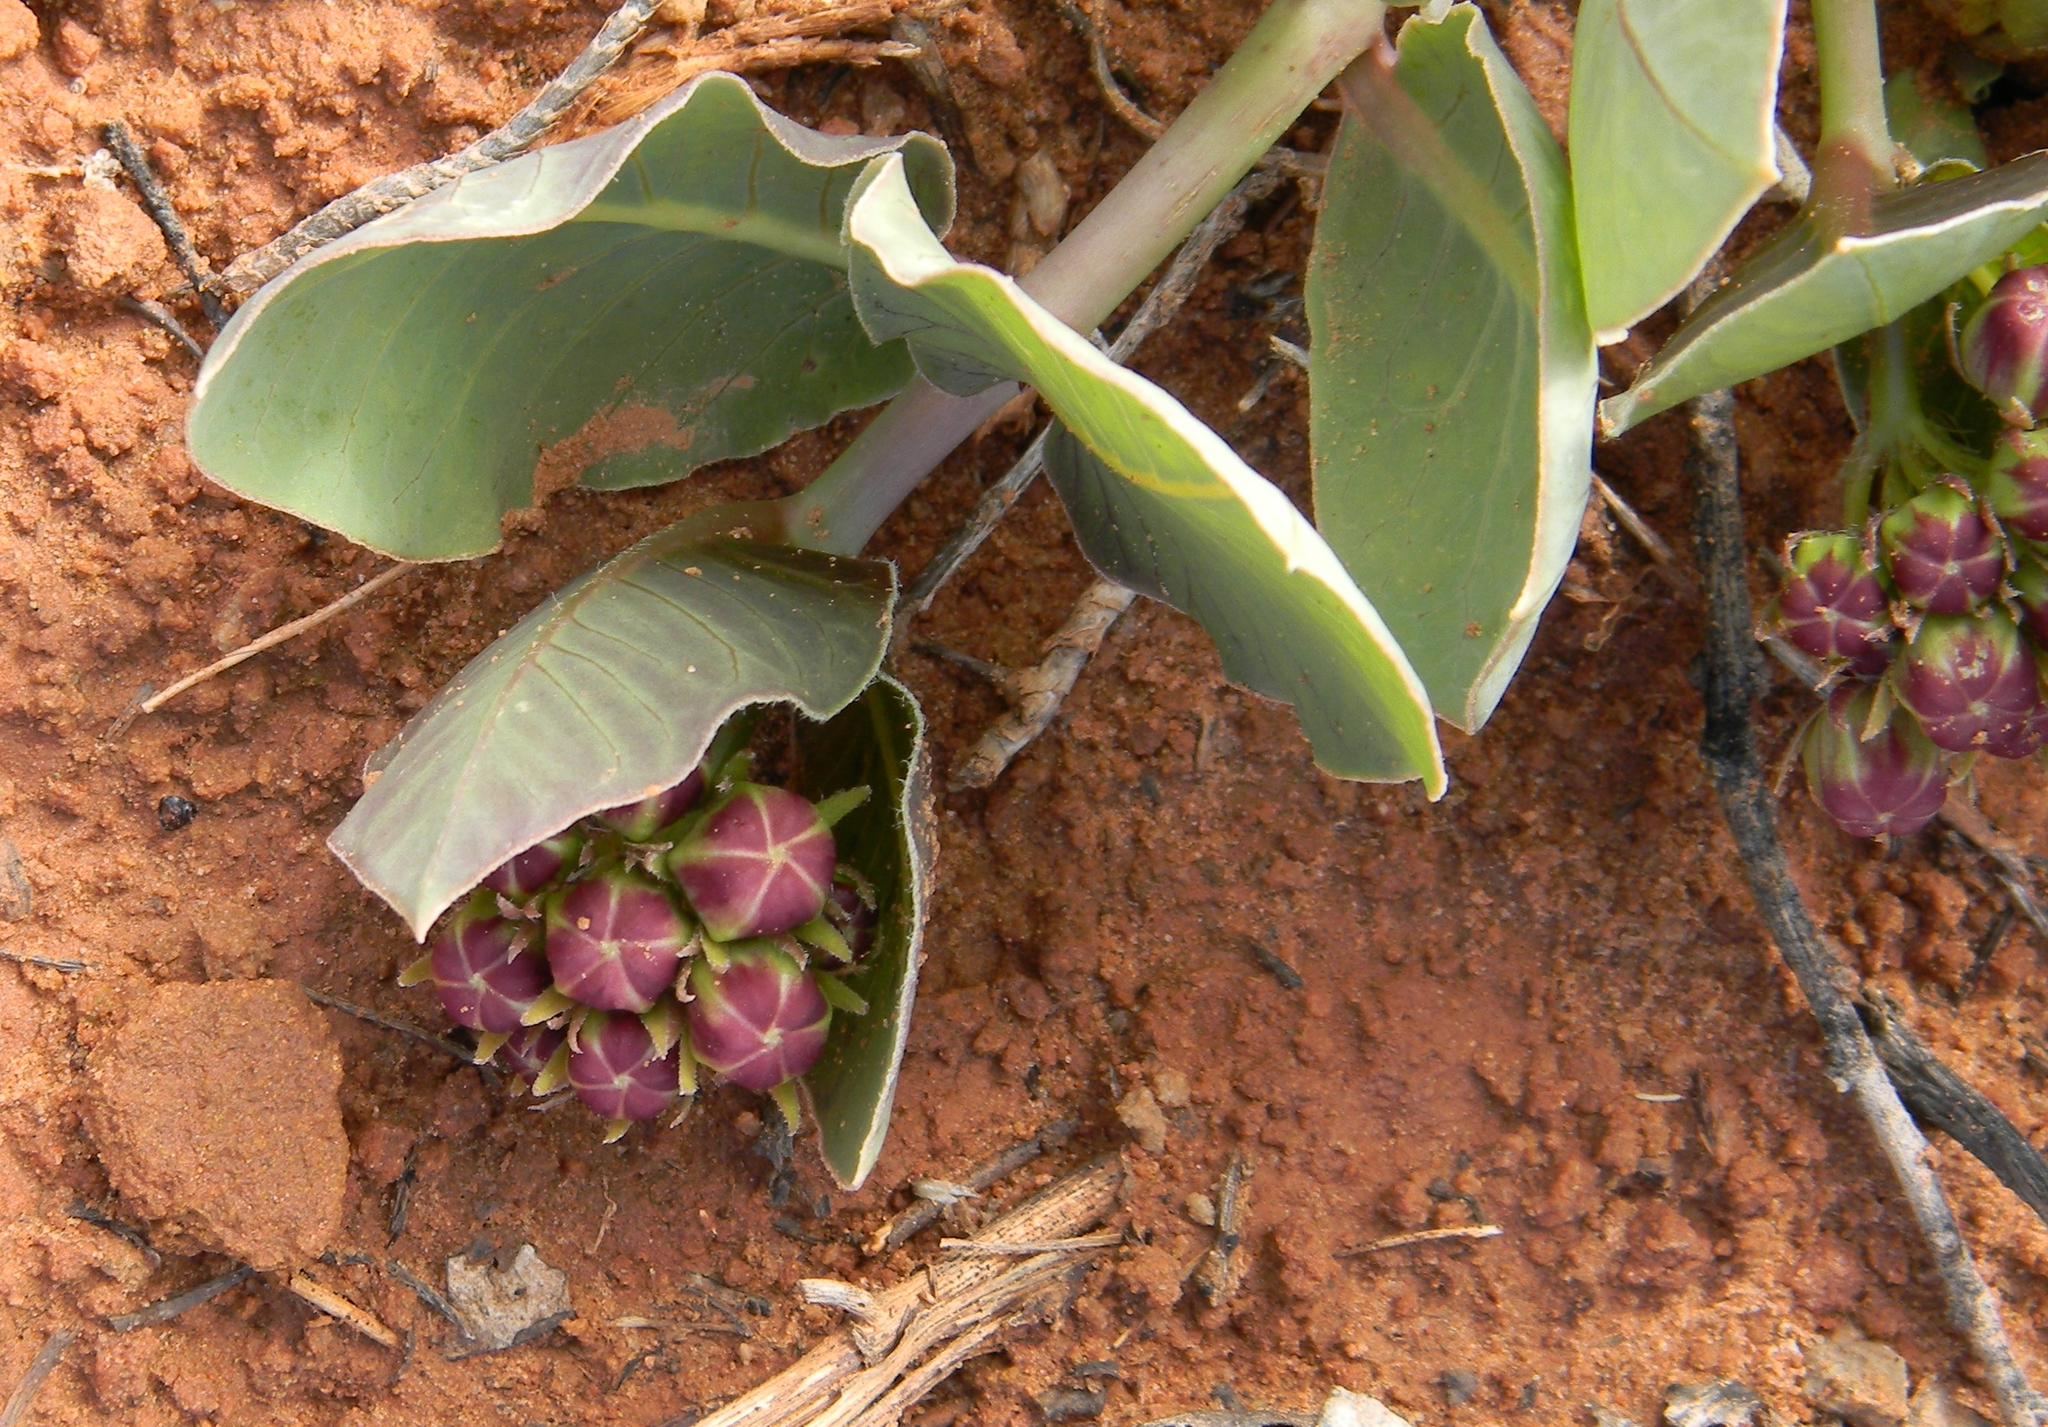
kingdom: Plantae
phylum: Tracheophyta
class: Magnoliopsida
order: Gentianales
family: Apocynaceae
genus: Asclepias
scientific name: Asclepias cryptoceras
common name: Humboldt mountains milkweed
